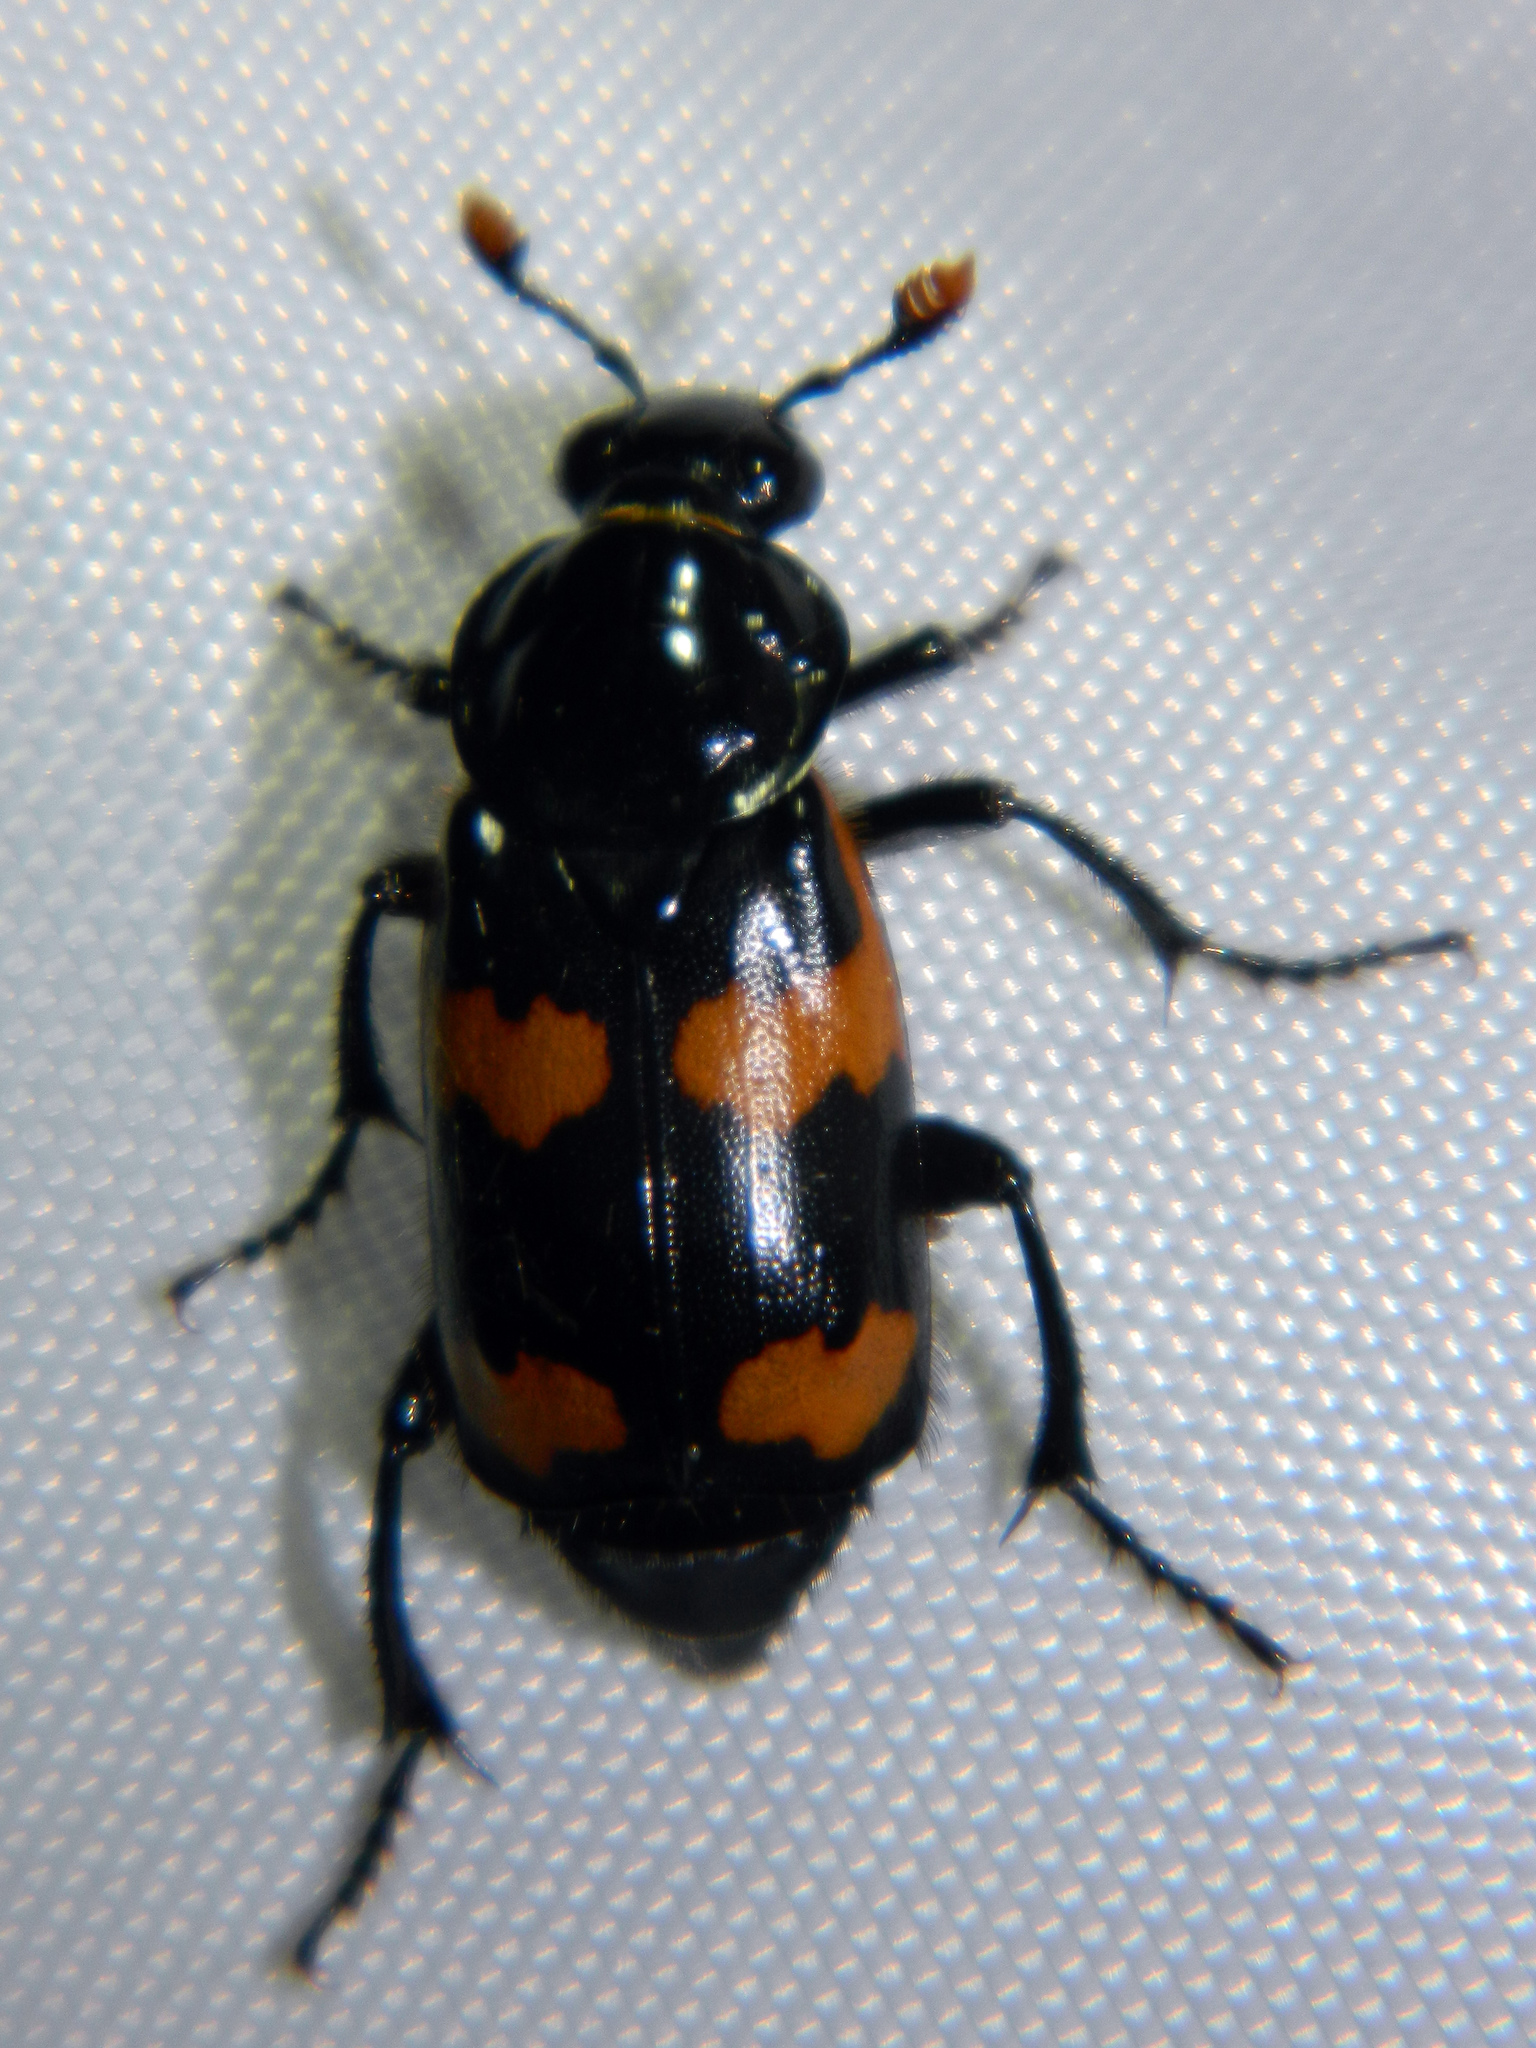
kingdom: Animalia
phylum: Arthropoda
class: Insecta
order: Coleoptera
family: Staphylinidae
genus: Nicrophorus
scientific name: Nicrophorus sayi
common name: Say's burying beetle
